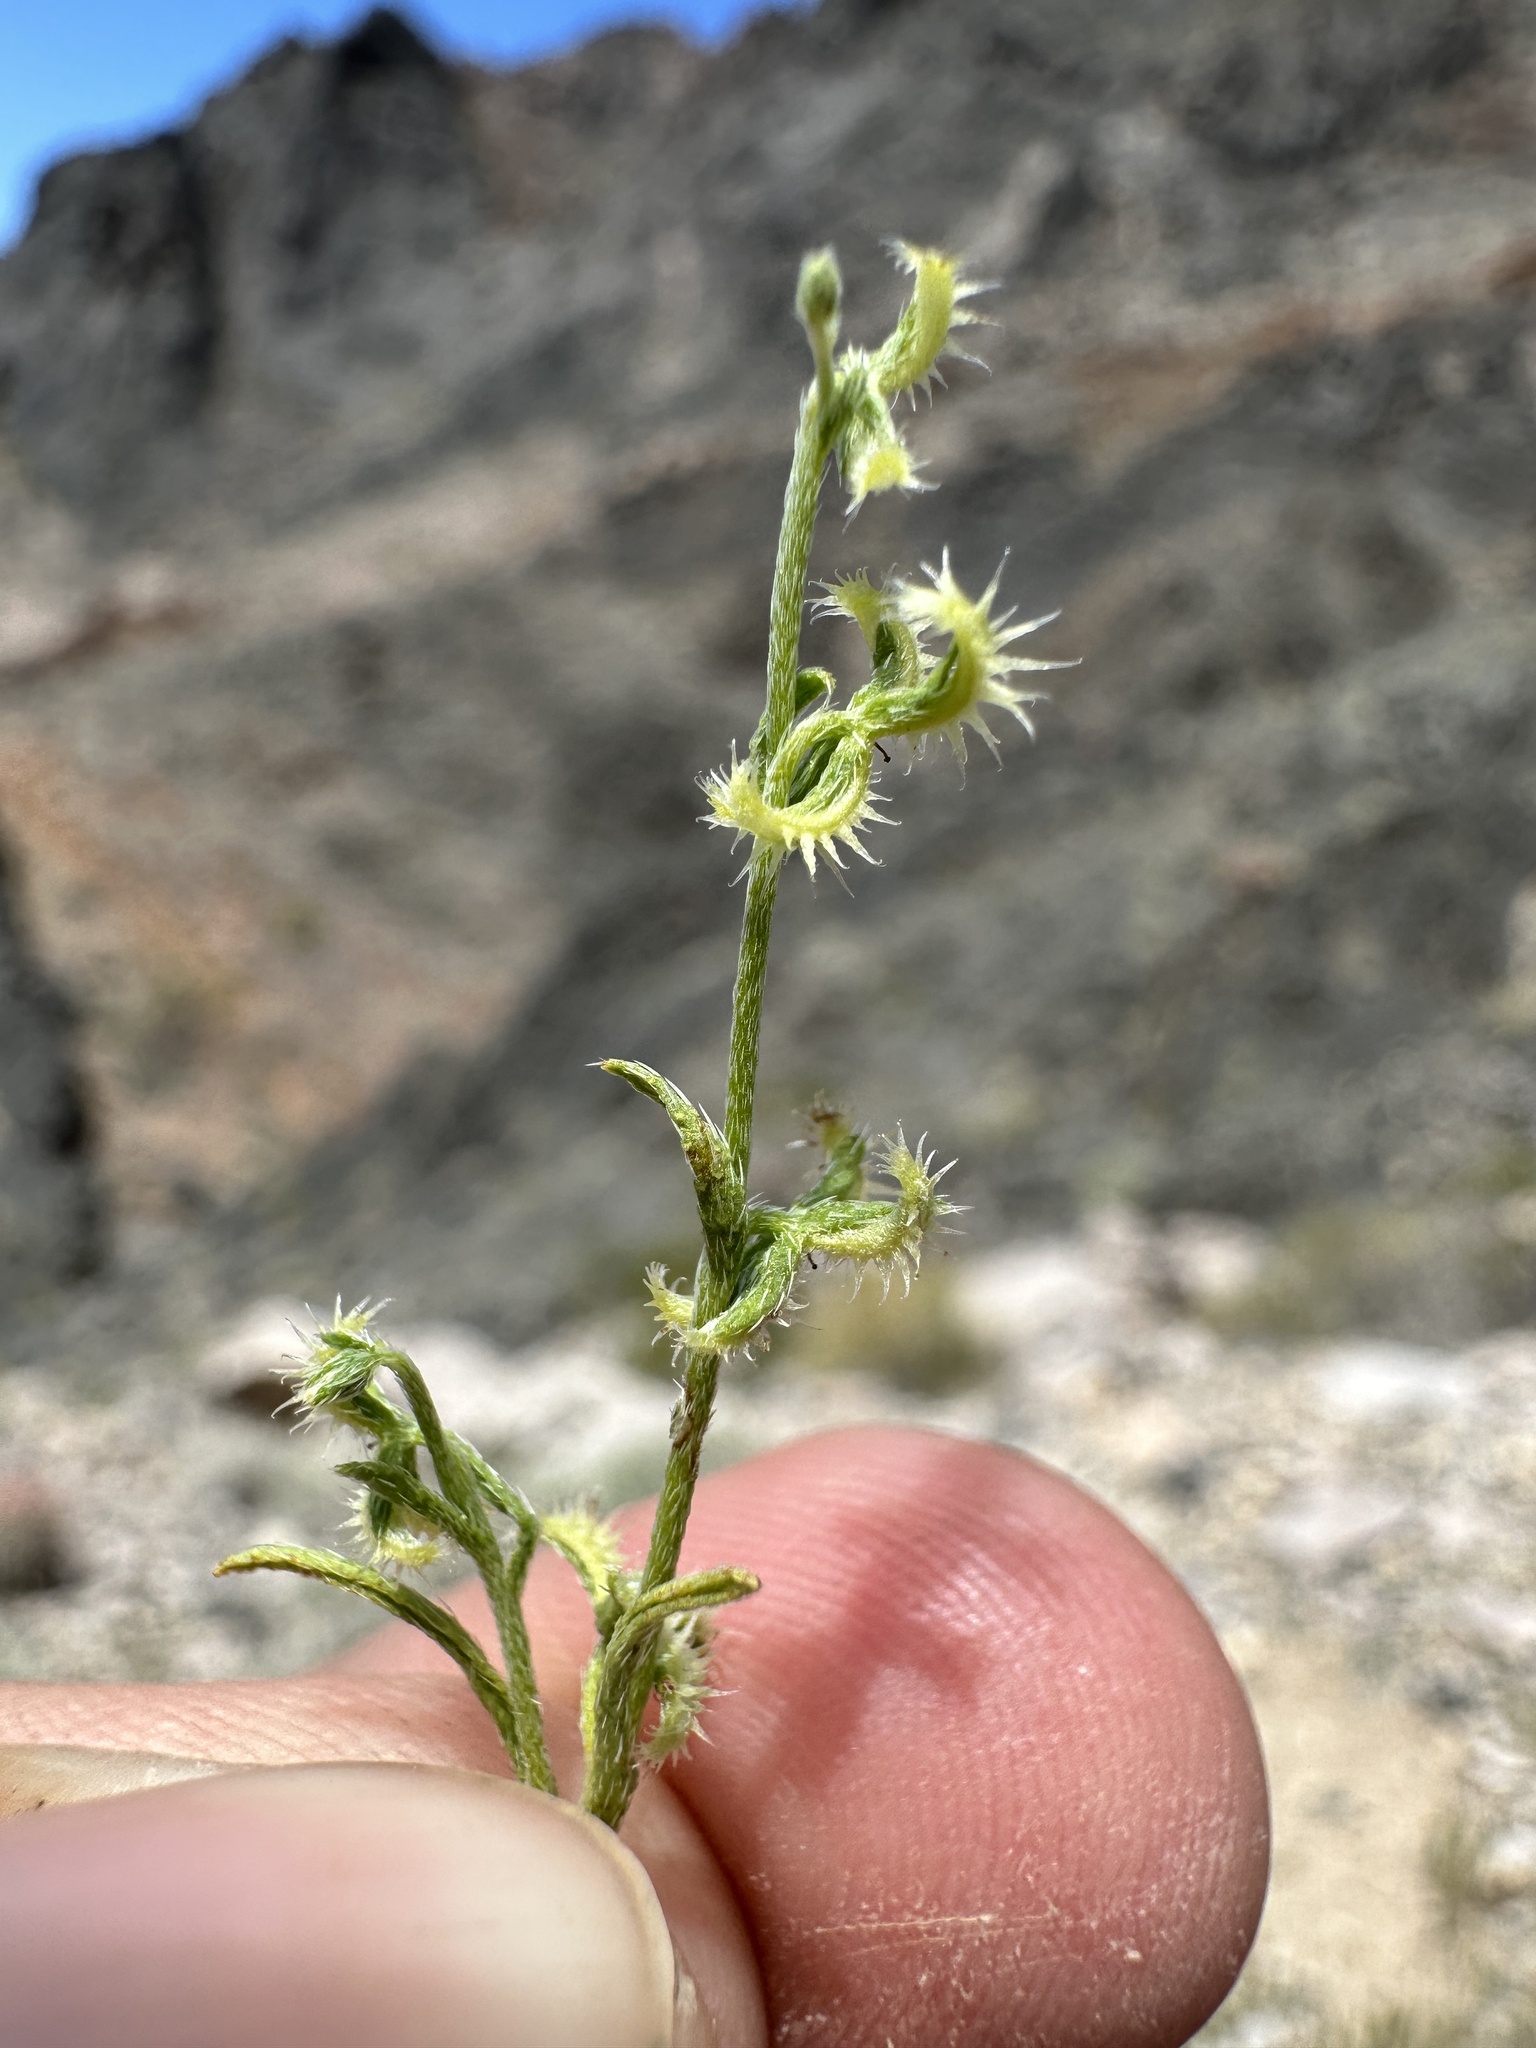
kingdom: Plantae
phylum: Tracheophyta
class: Magnoliopsida
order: Boraginales
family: Boraginaceae
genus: Pectocarya
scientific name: Pectocarya recurvata
